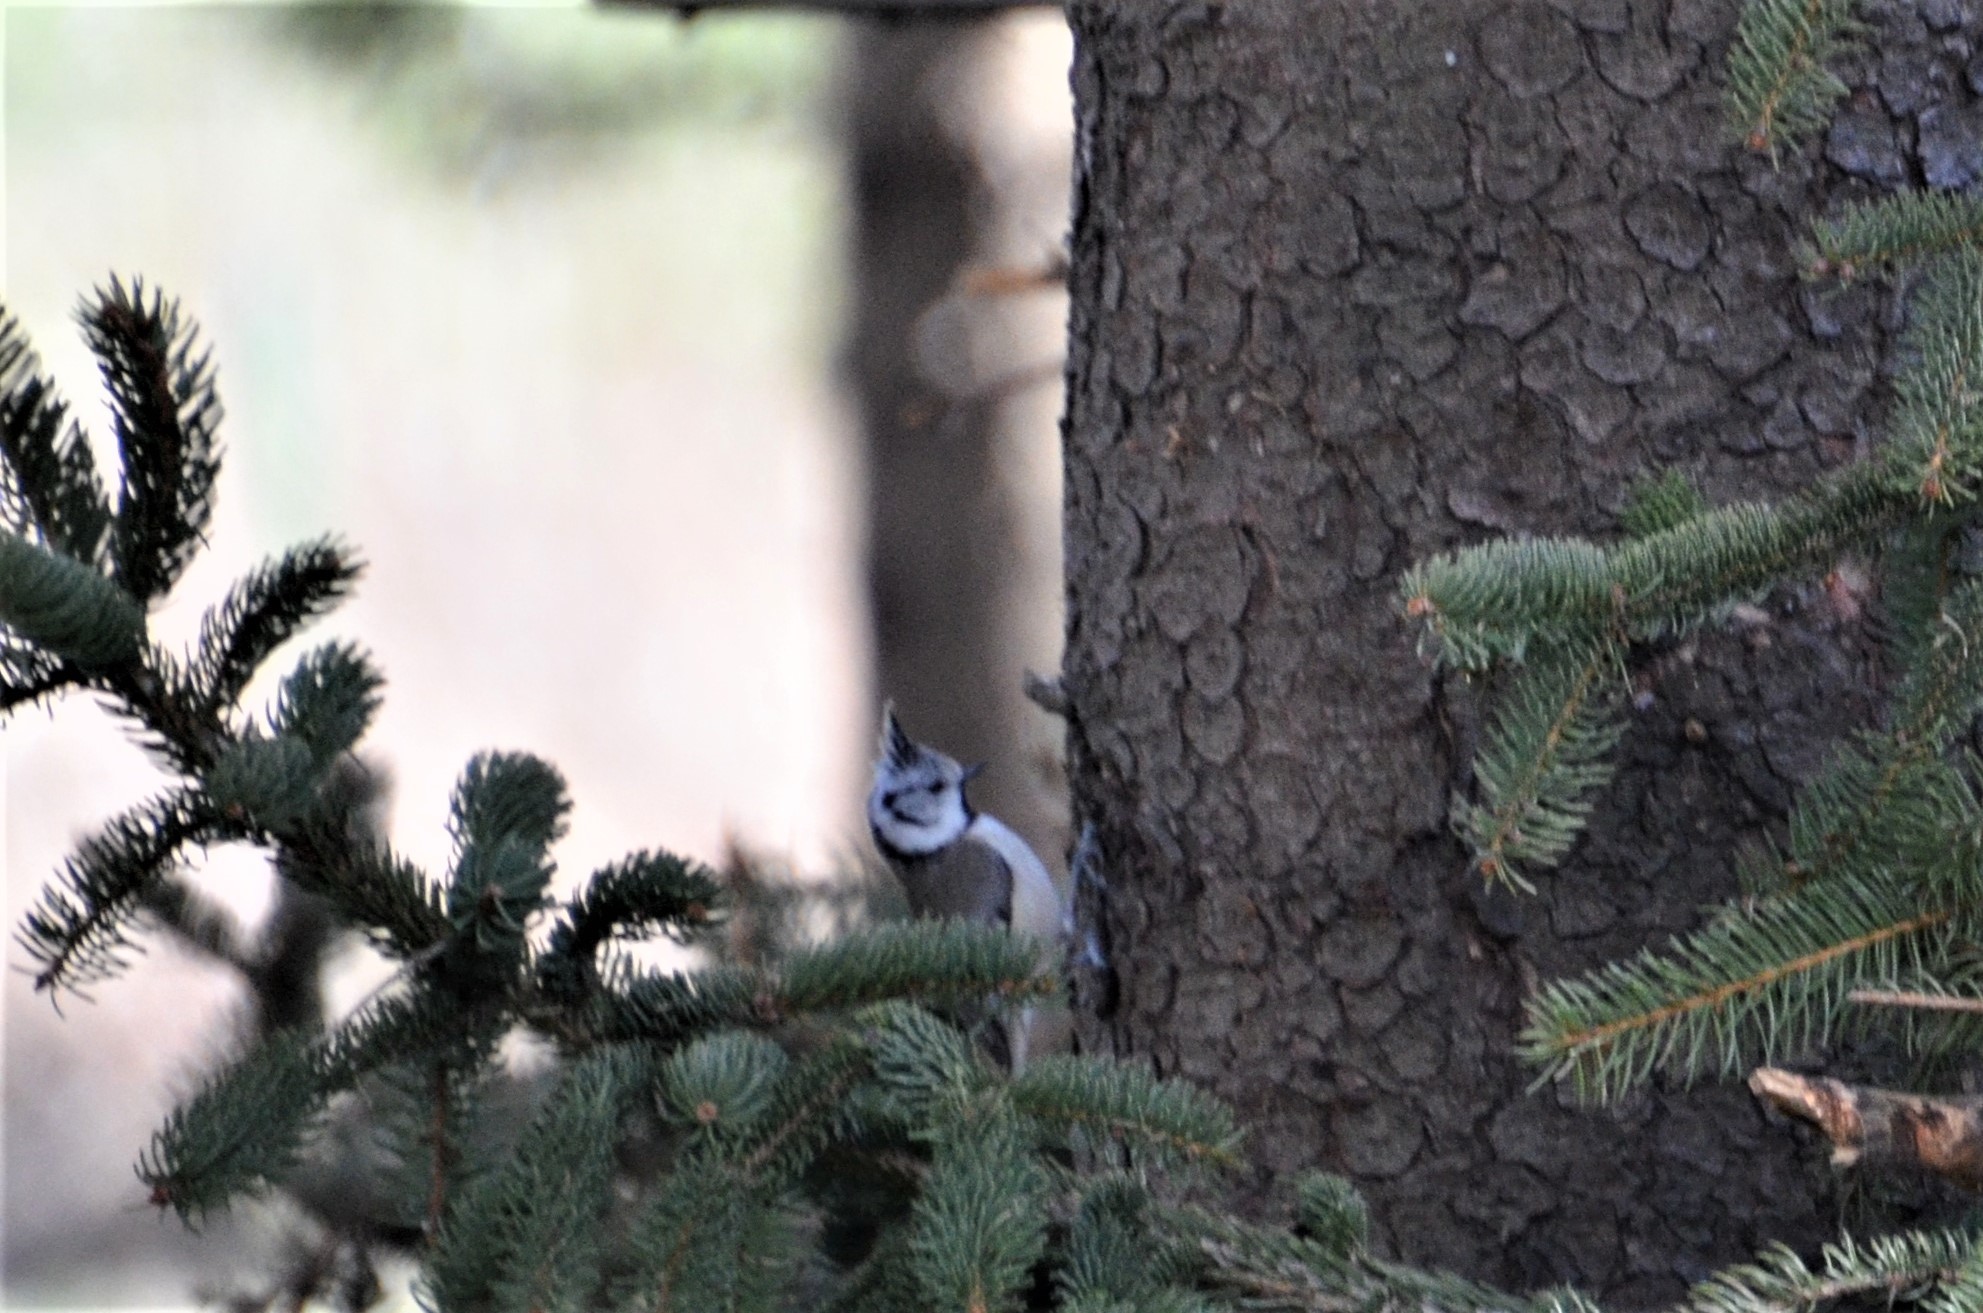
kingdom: Animalia
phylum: Chordata
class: Aves
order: Passeriformes
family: Paridae
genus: Lophophanes
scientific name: Lophophanes cristatus
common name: European crested tit
